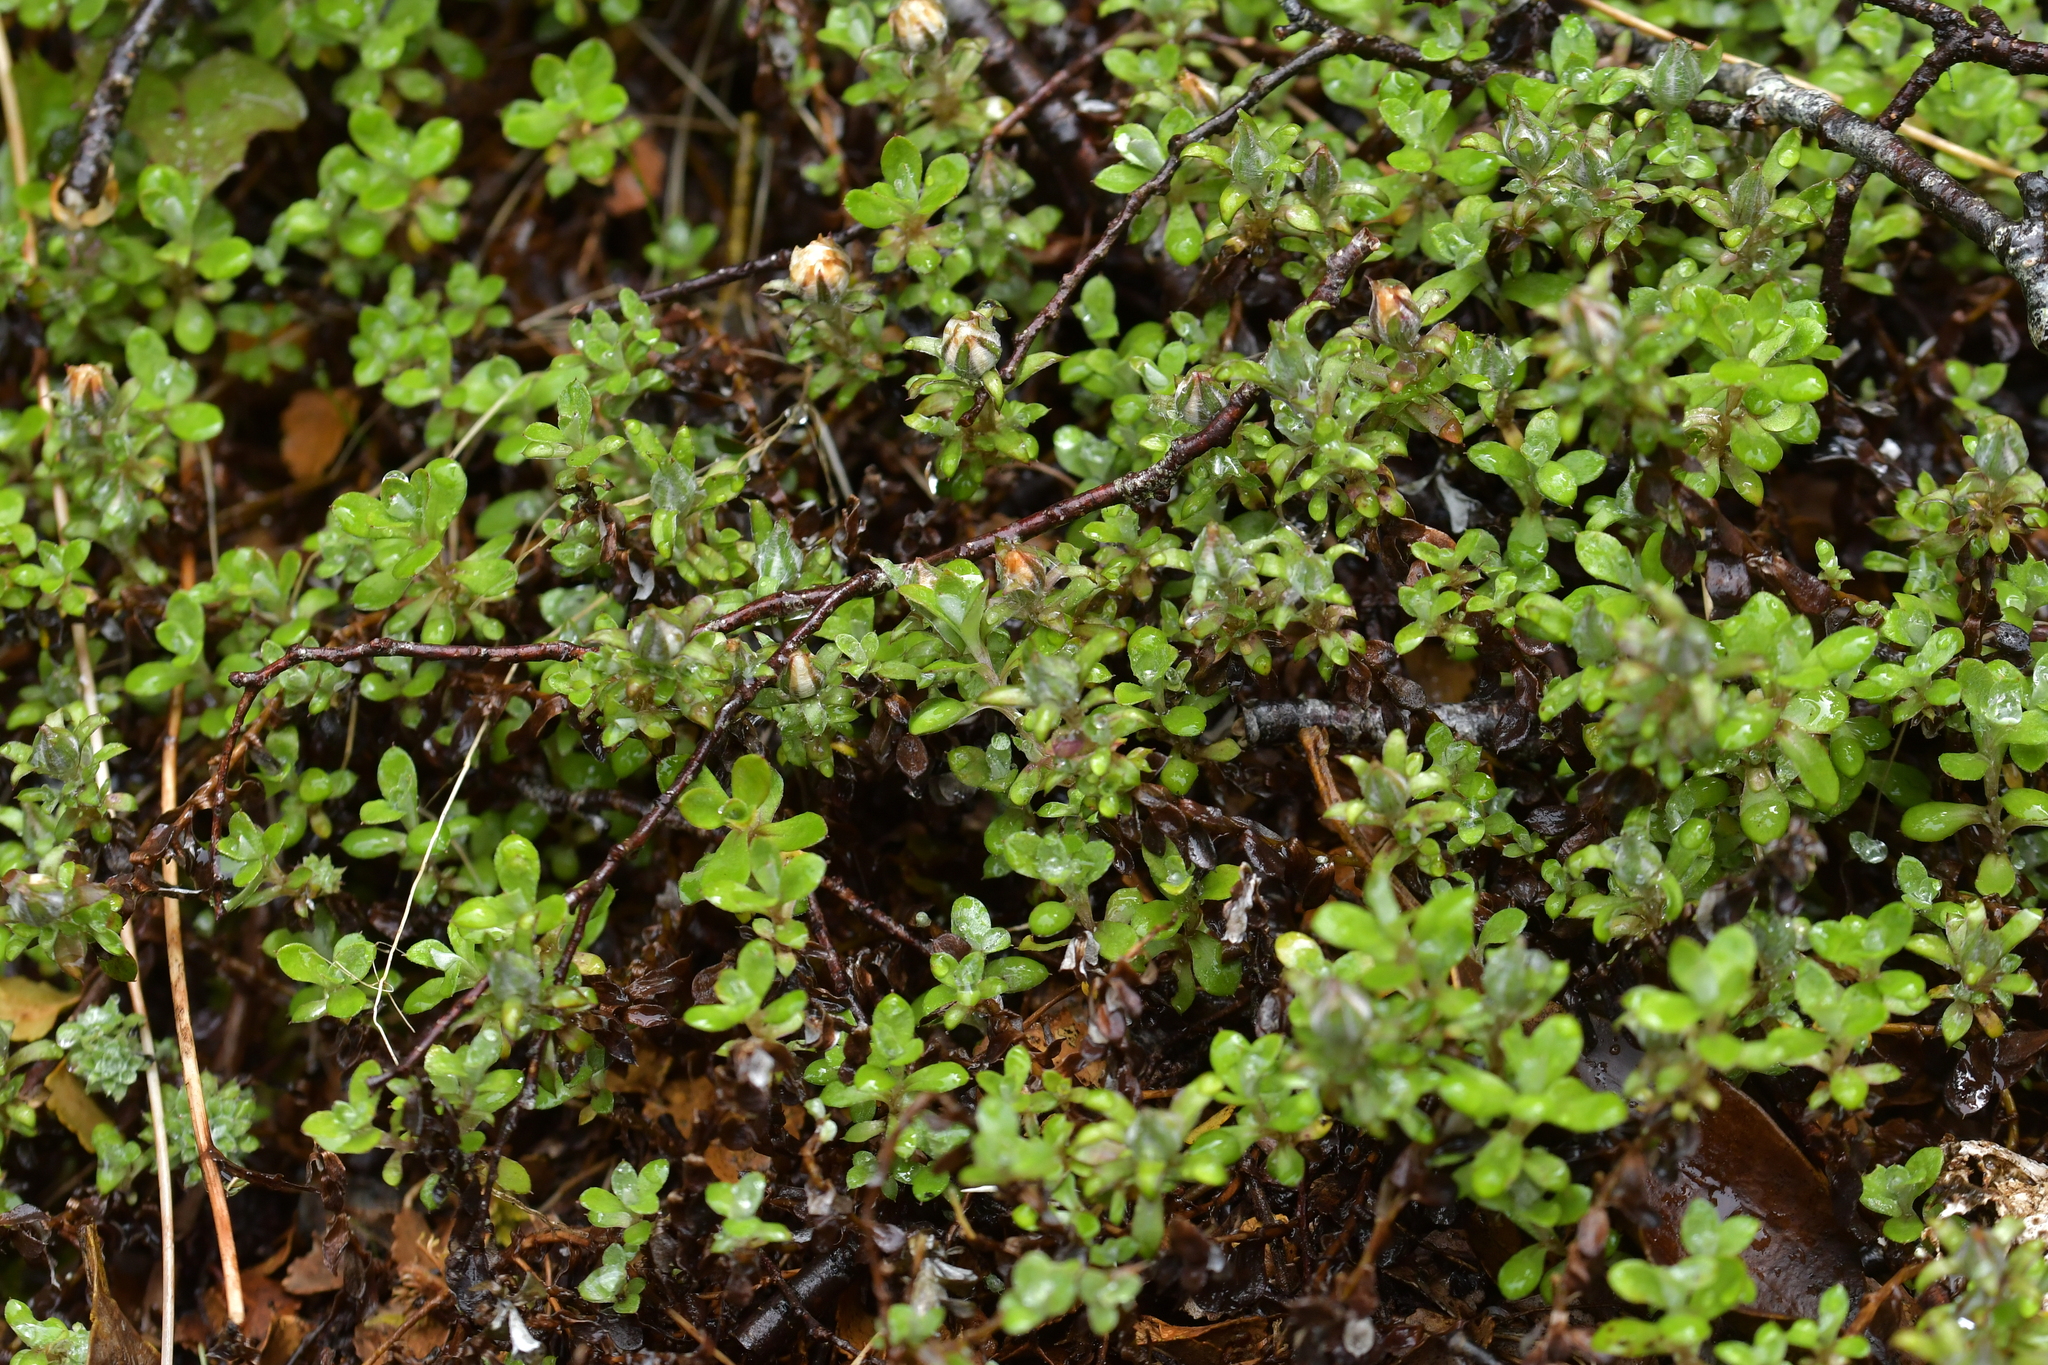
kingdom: Plantae
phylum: Tracheophyta
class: Magnoliopsida
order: Asterales
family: Asteraceae
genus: Anaphalioides
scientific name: Anaphalioides bellidioides
